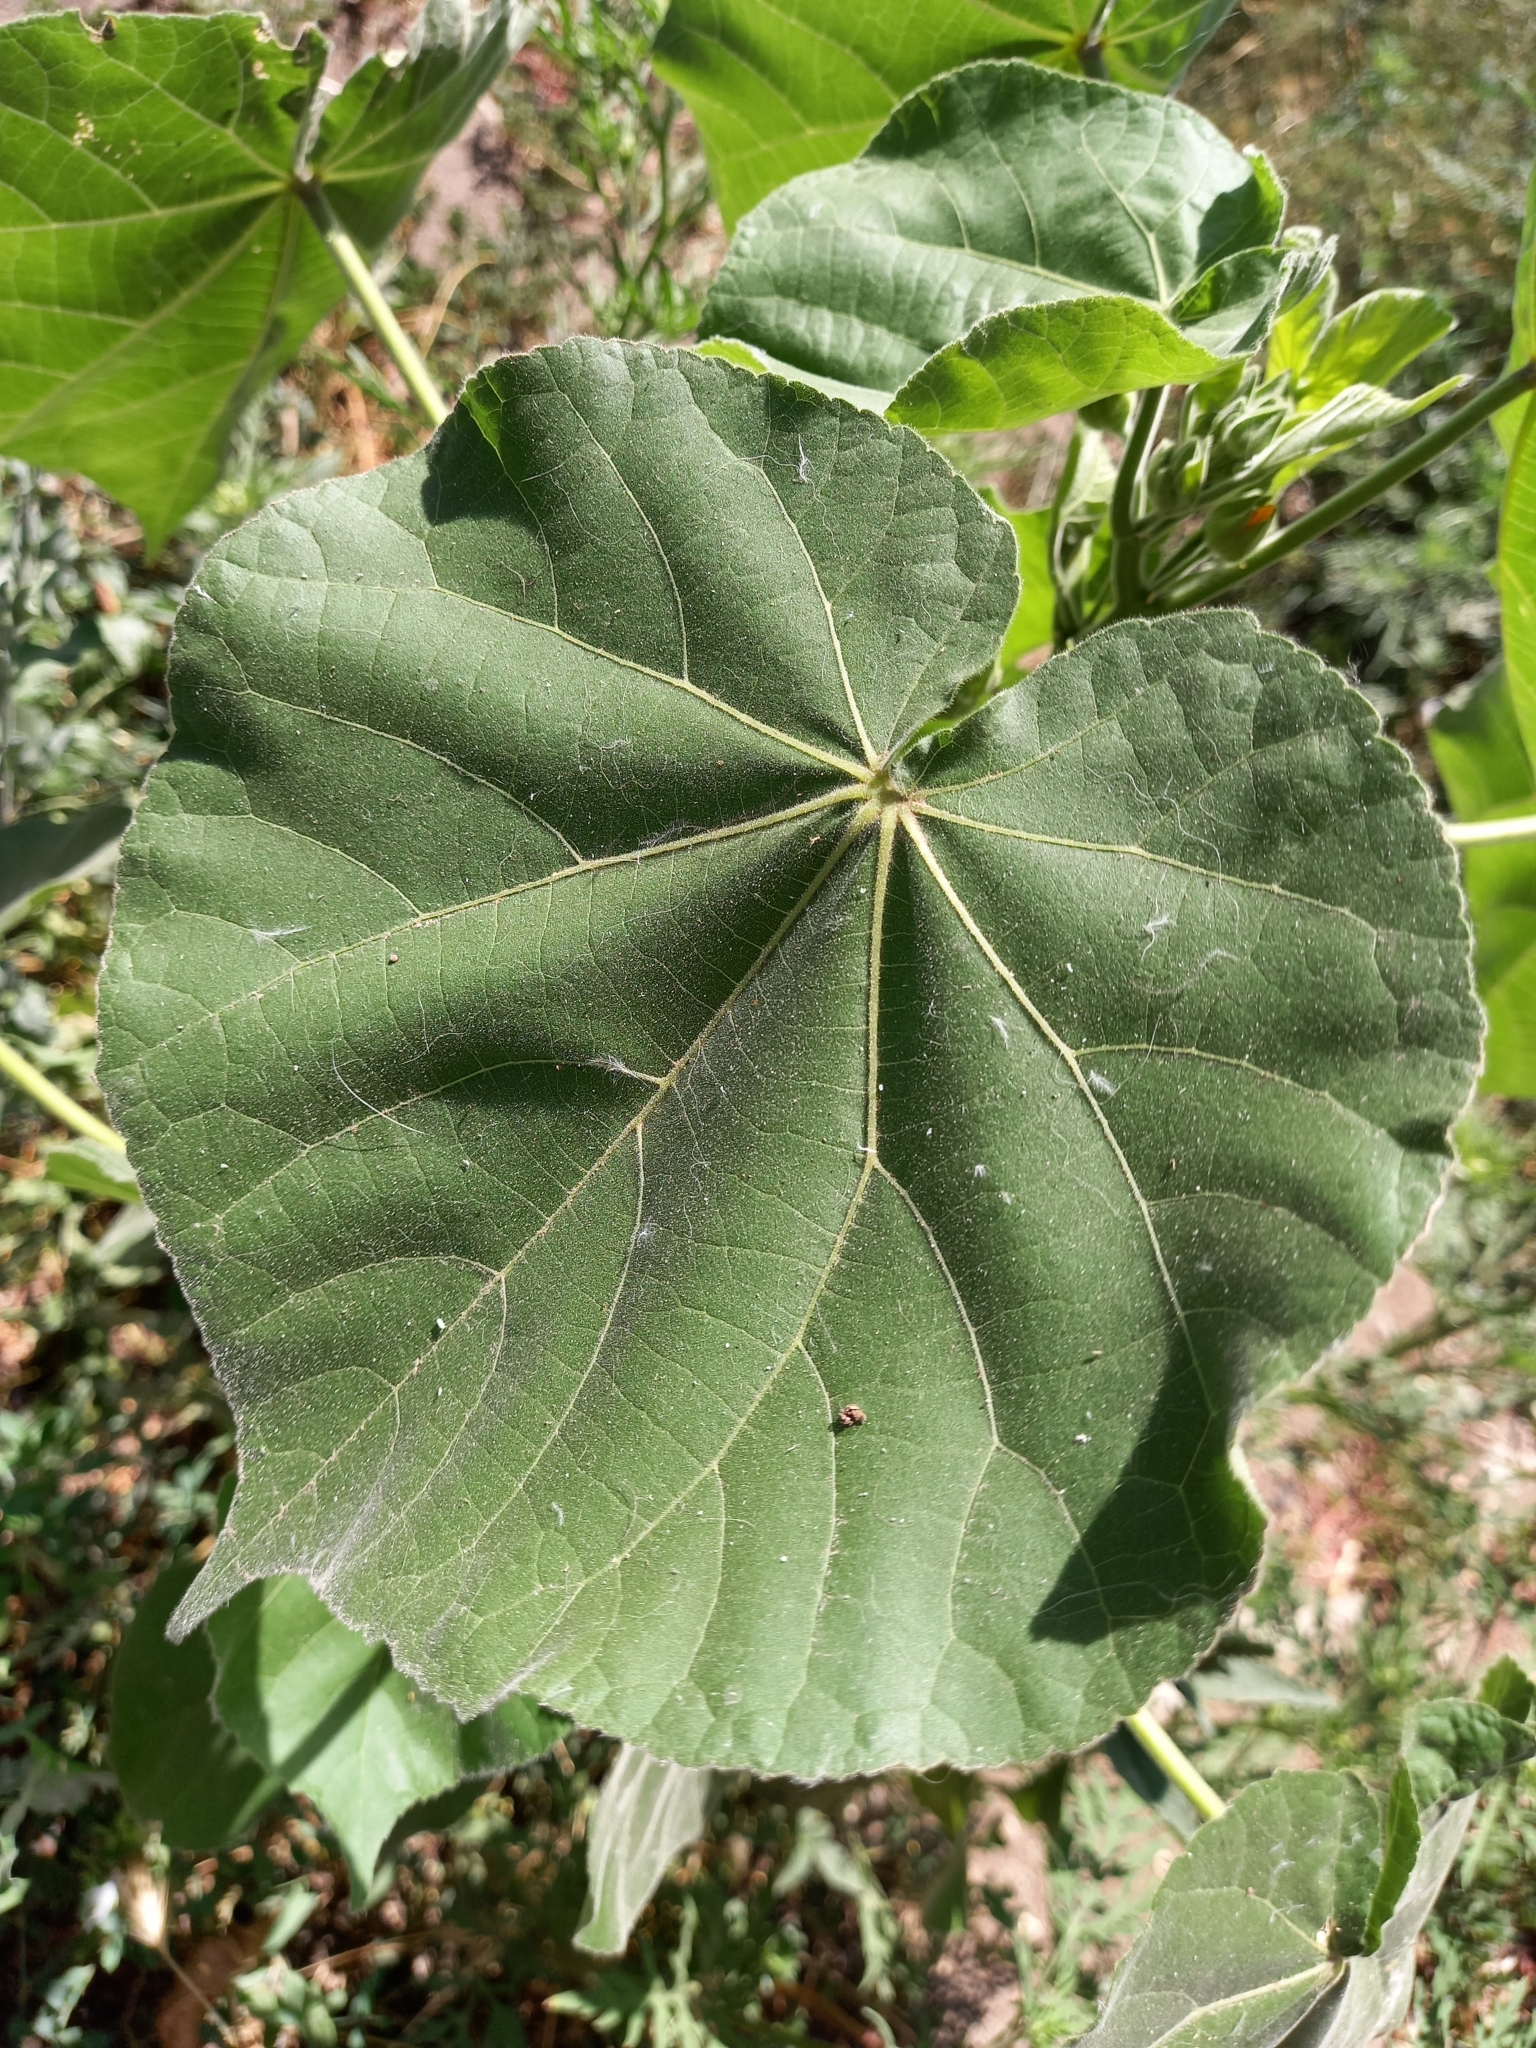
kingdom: Plantae
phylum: Tracheophyta
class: Magnoliopsida
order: Malvales
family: Malvaceae
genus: Abutilon
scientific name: Abutilon theophrasti
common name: Velvetleaf
